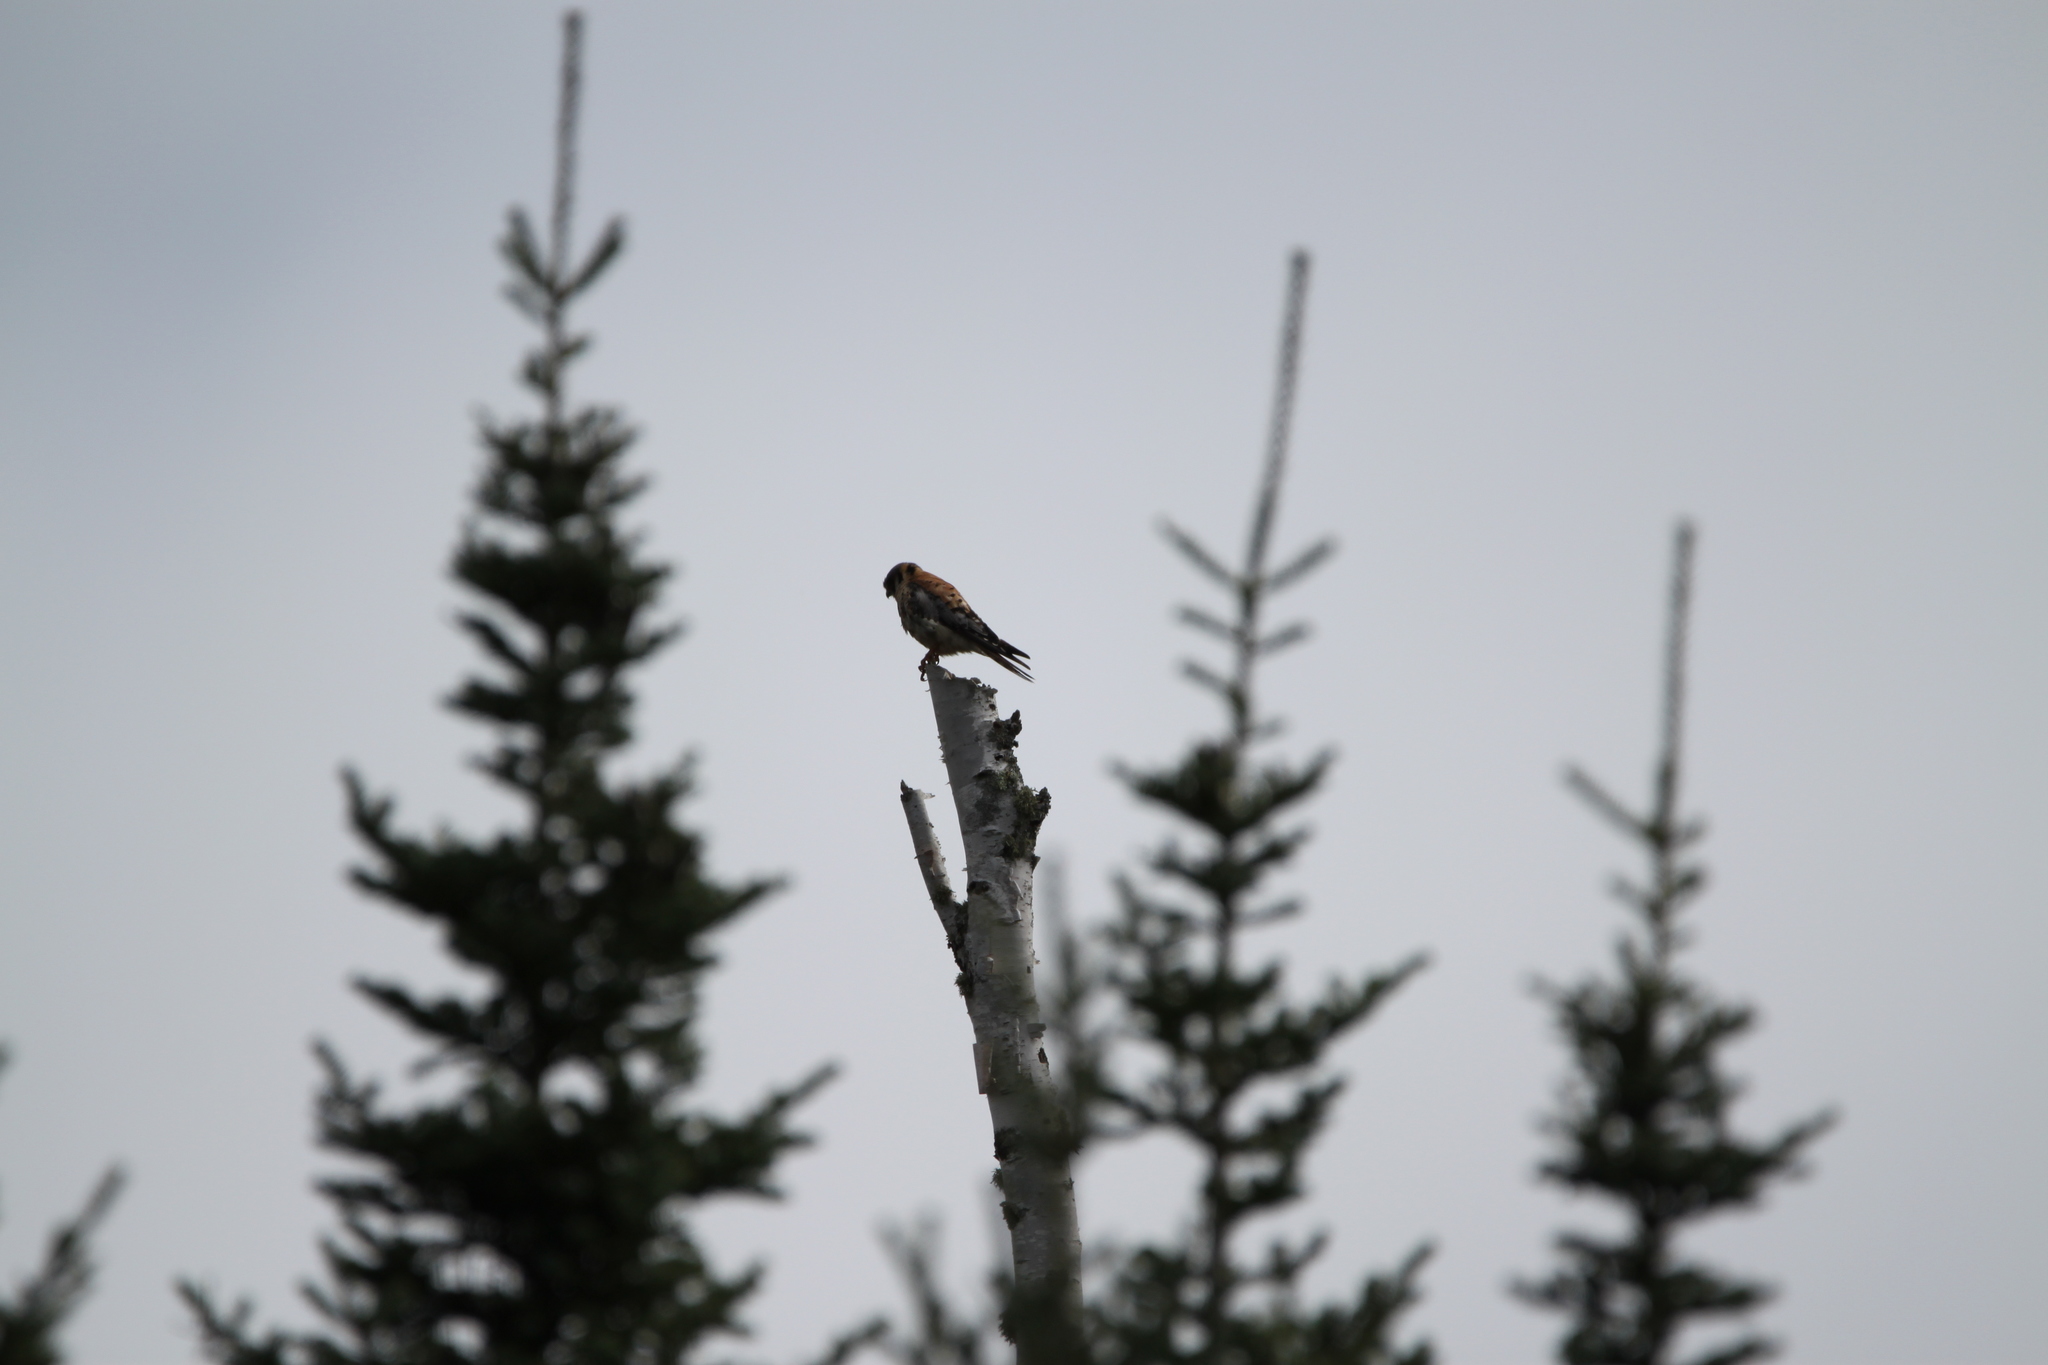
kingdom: Animalia
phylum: Chordata
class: Aves
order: Falconiformes
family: Falconidae
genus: Falco
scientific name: Falco sparverius
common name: American kestrel
